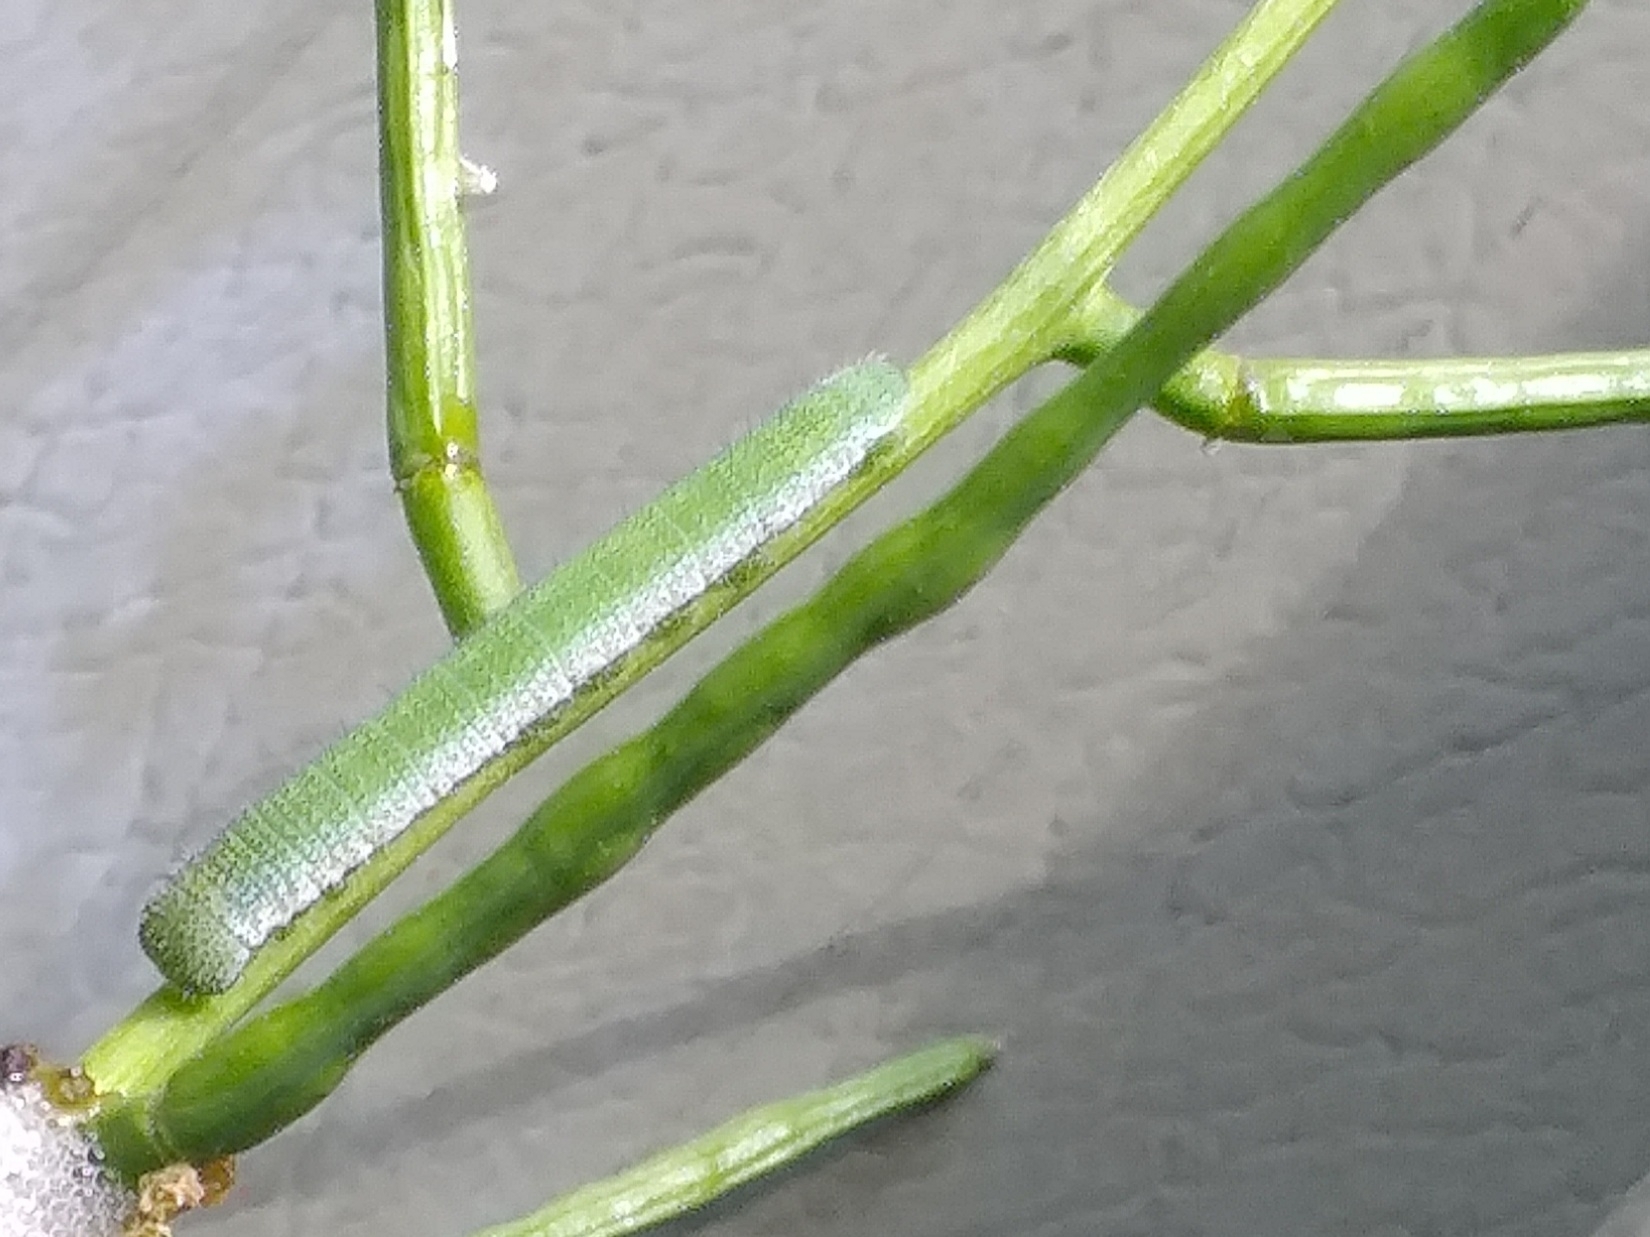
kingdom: Animalia
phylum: Arthropoda
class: Insecta
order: Lepidoptera
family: Pieridae
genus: Anthocharis
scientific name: Anthocharis cardamines
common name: Orange-tip
